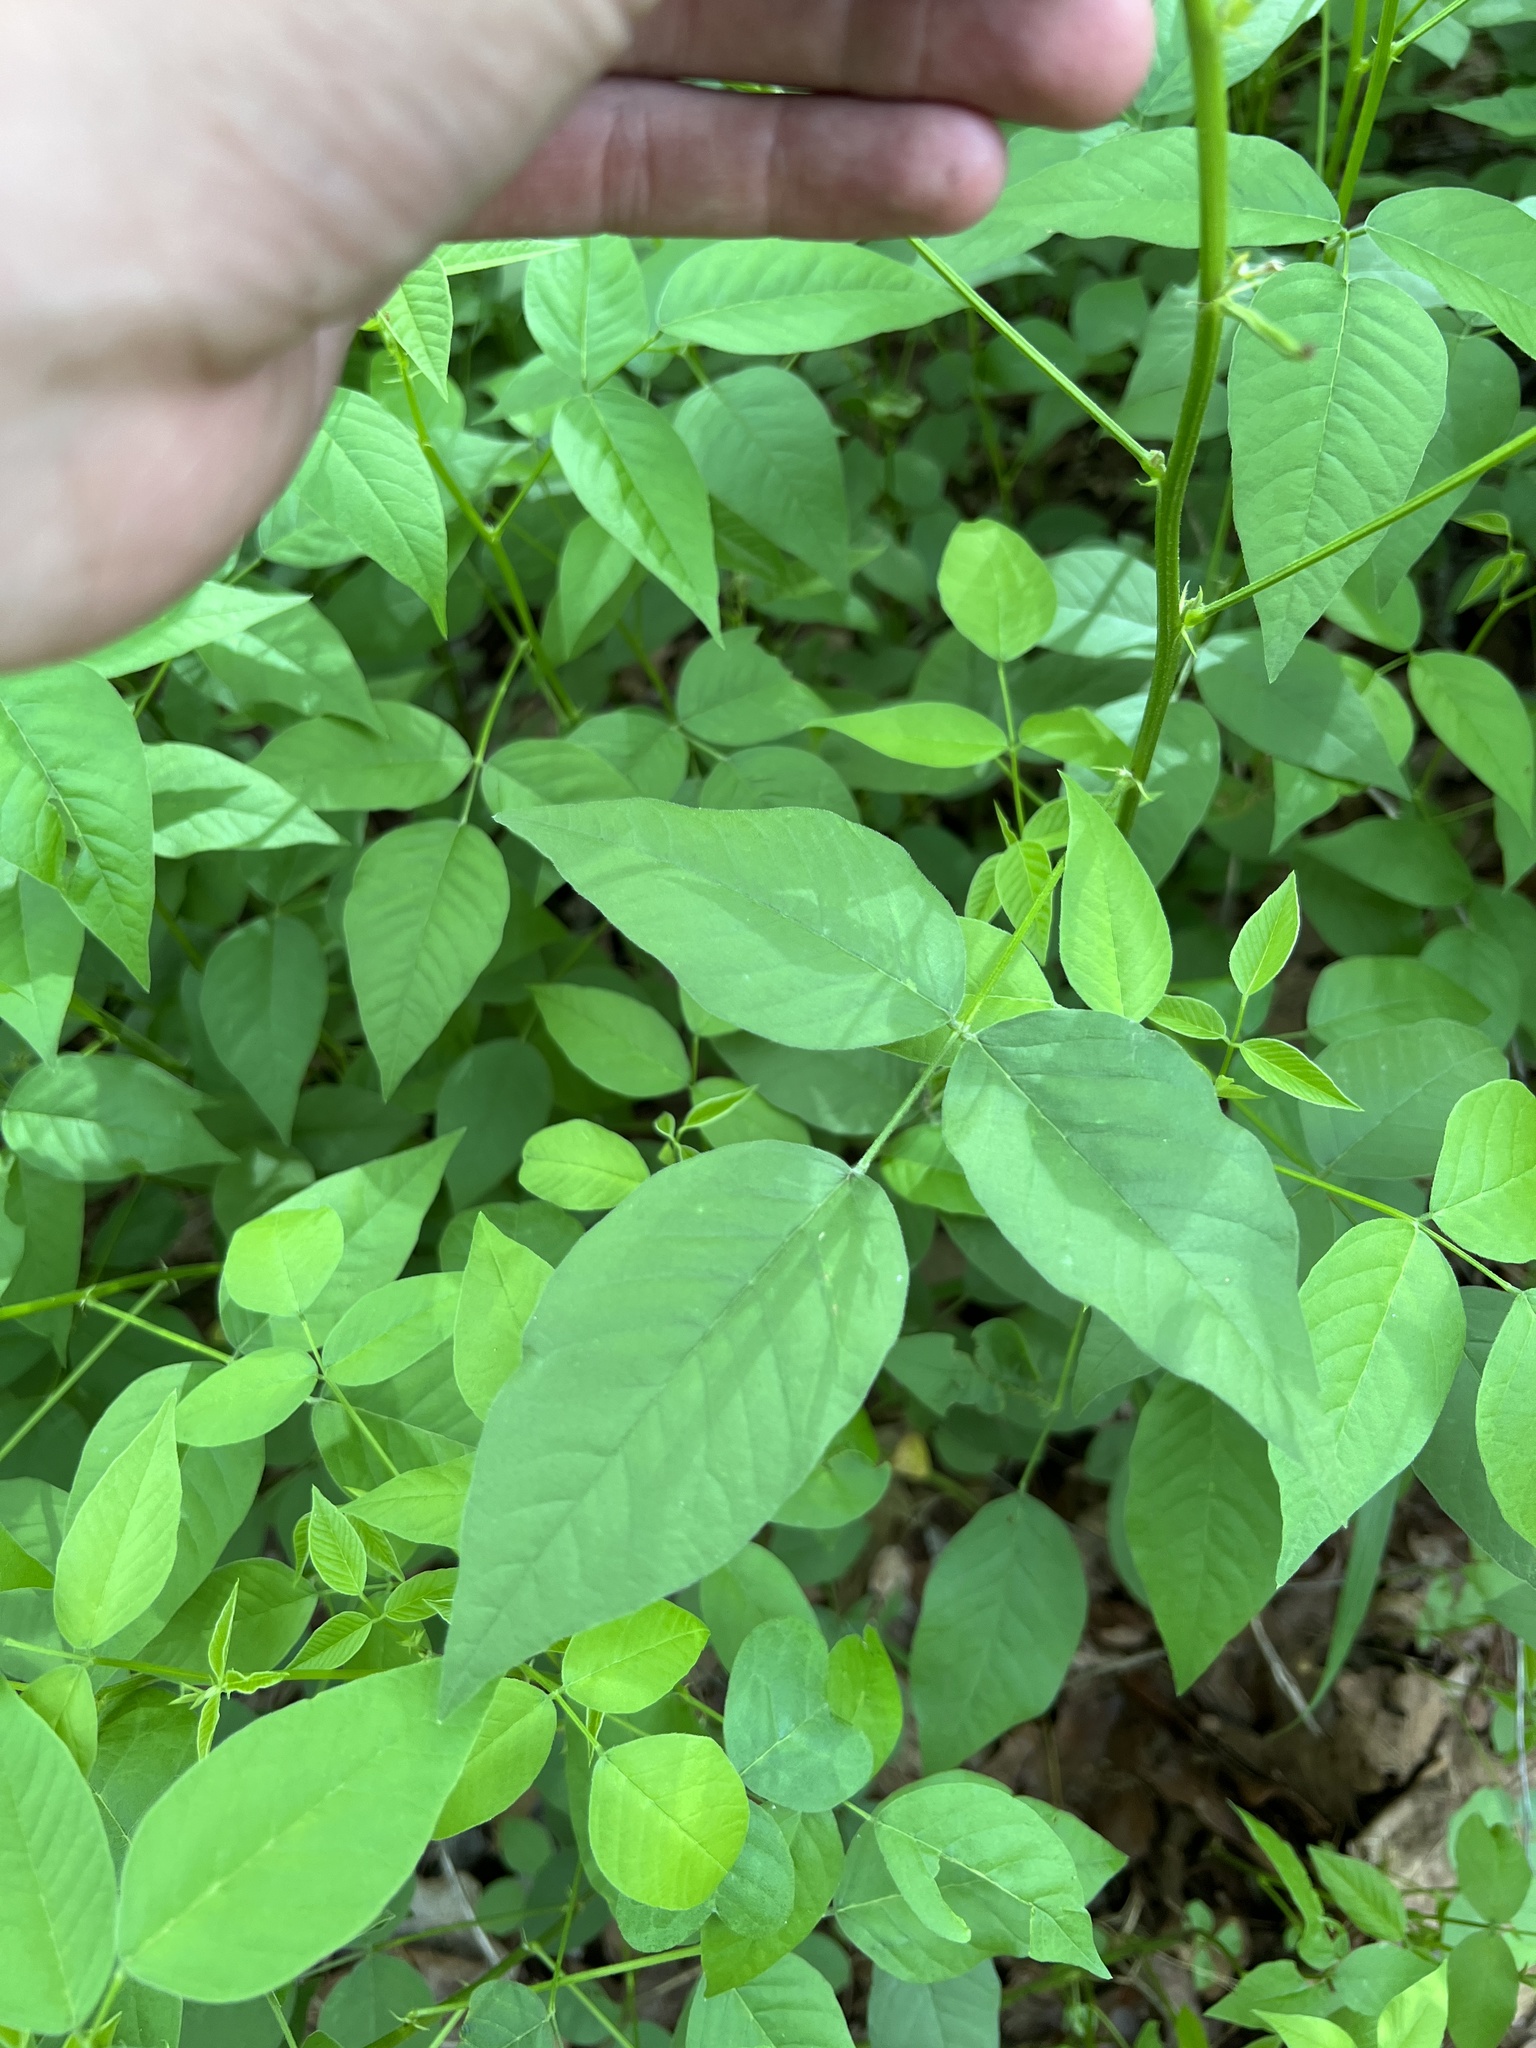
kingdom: Plantae
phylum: Tracheophyta
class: Magnoliopsida
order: Fabales
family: Fabaceae
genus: Orbexilum
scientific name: Orbexilum onobrychis
